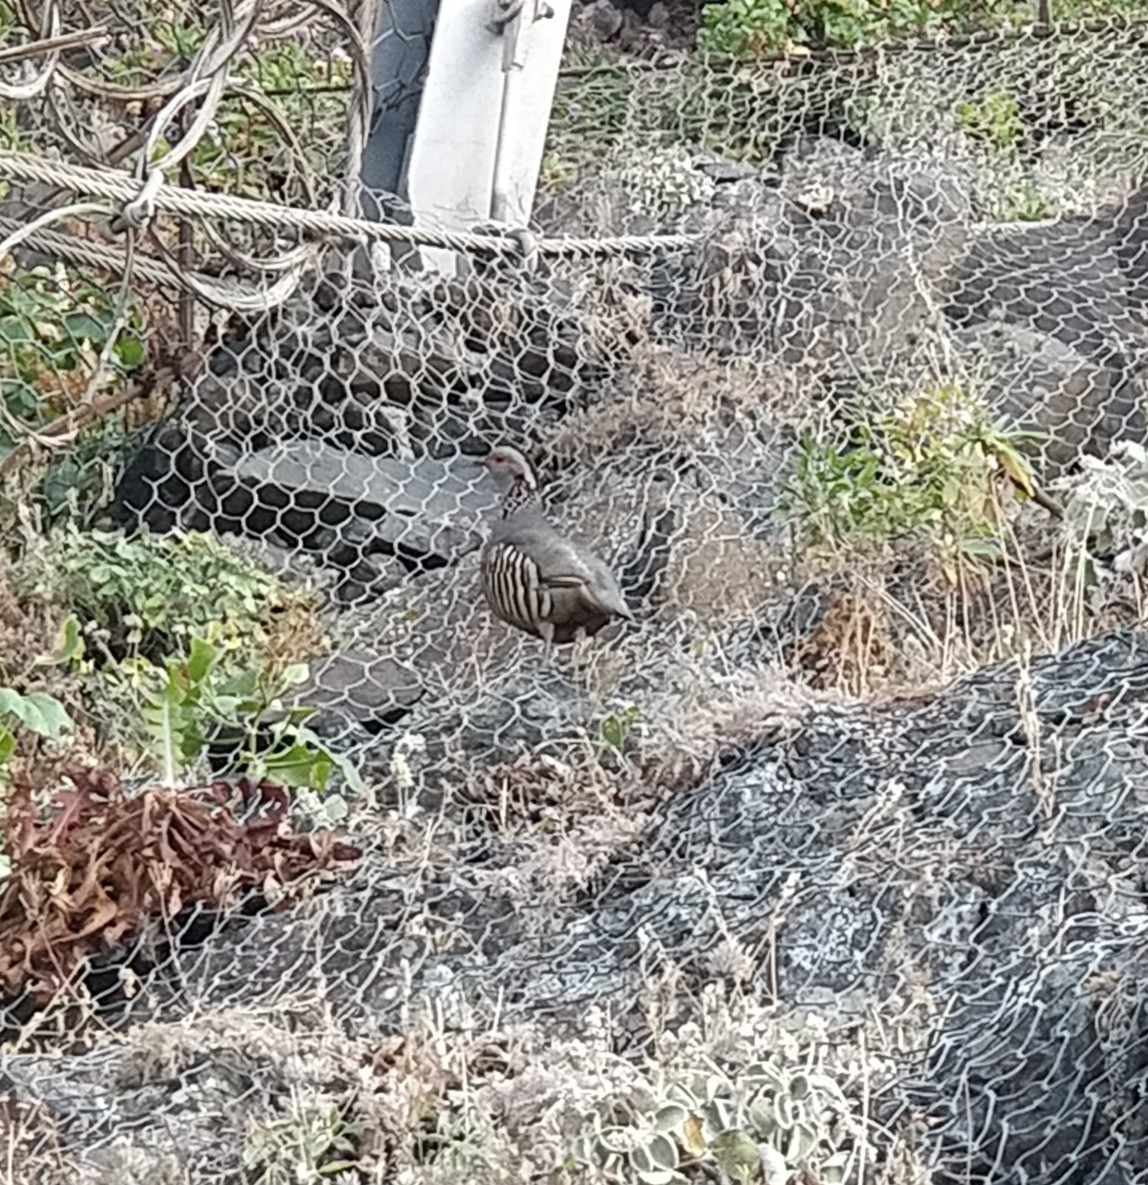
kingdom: Animalia
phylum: Chordata
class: Aves
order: Galliformes
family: Phasianidae
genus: Alectoris
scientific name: Alectoris barbara
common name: Barbary partridge
